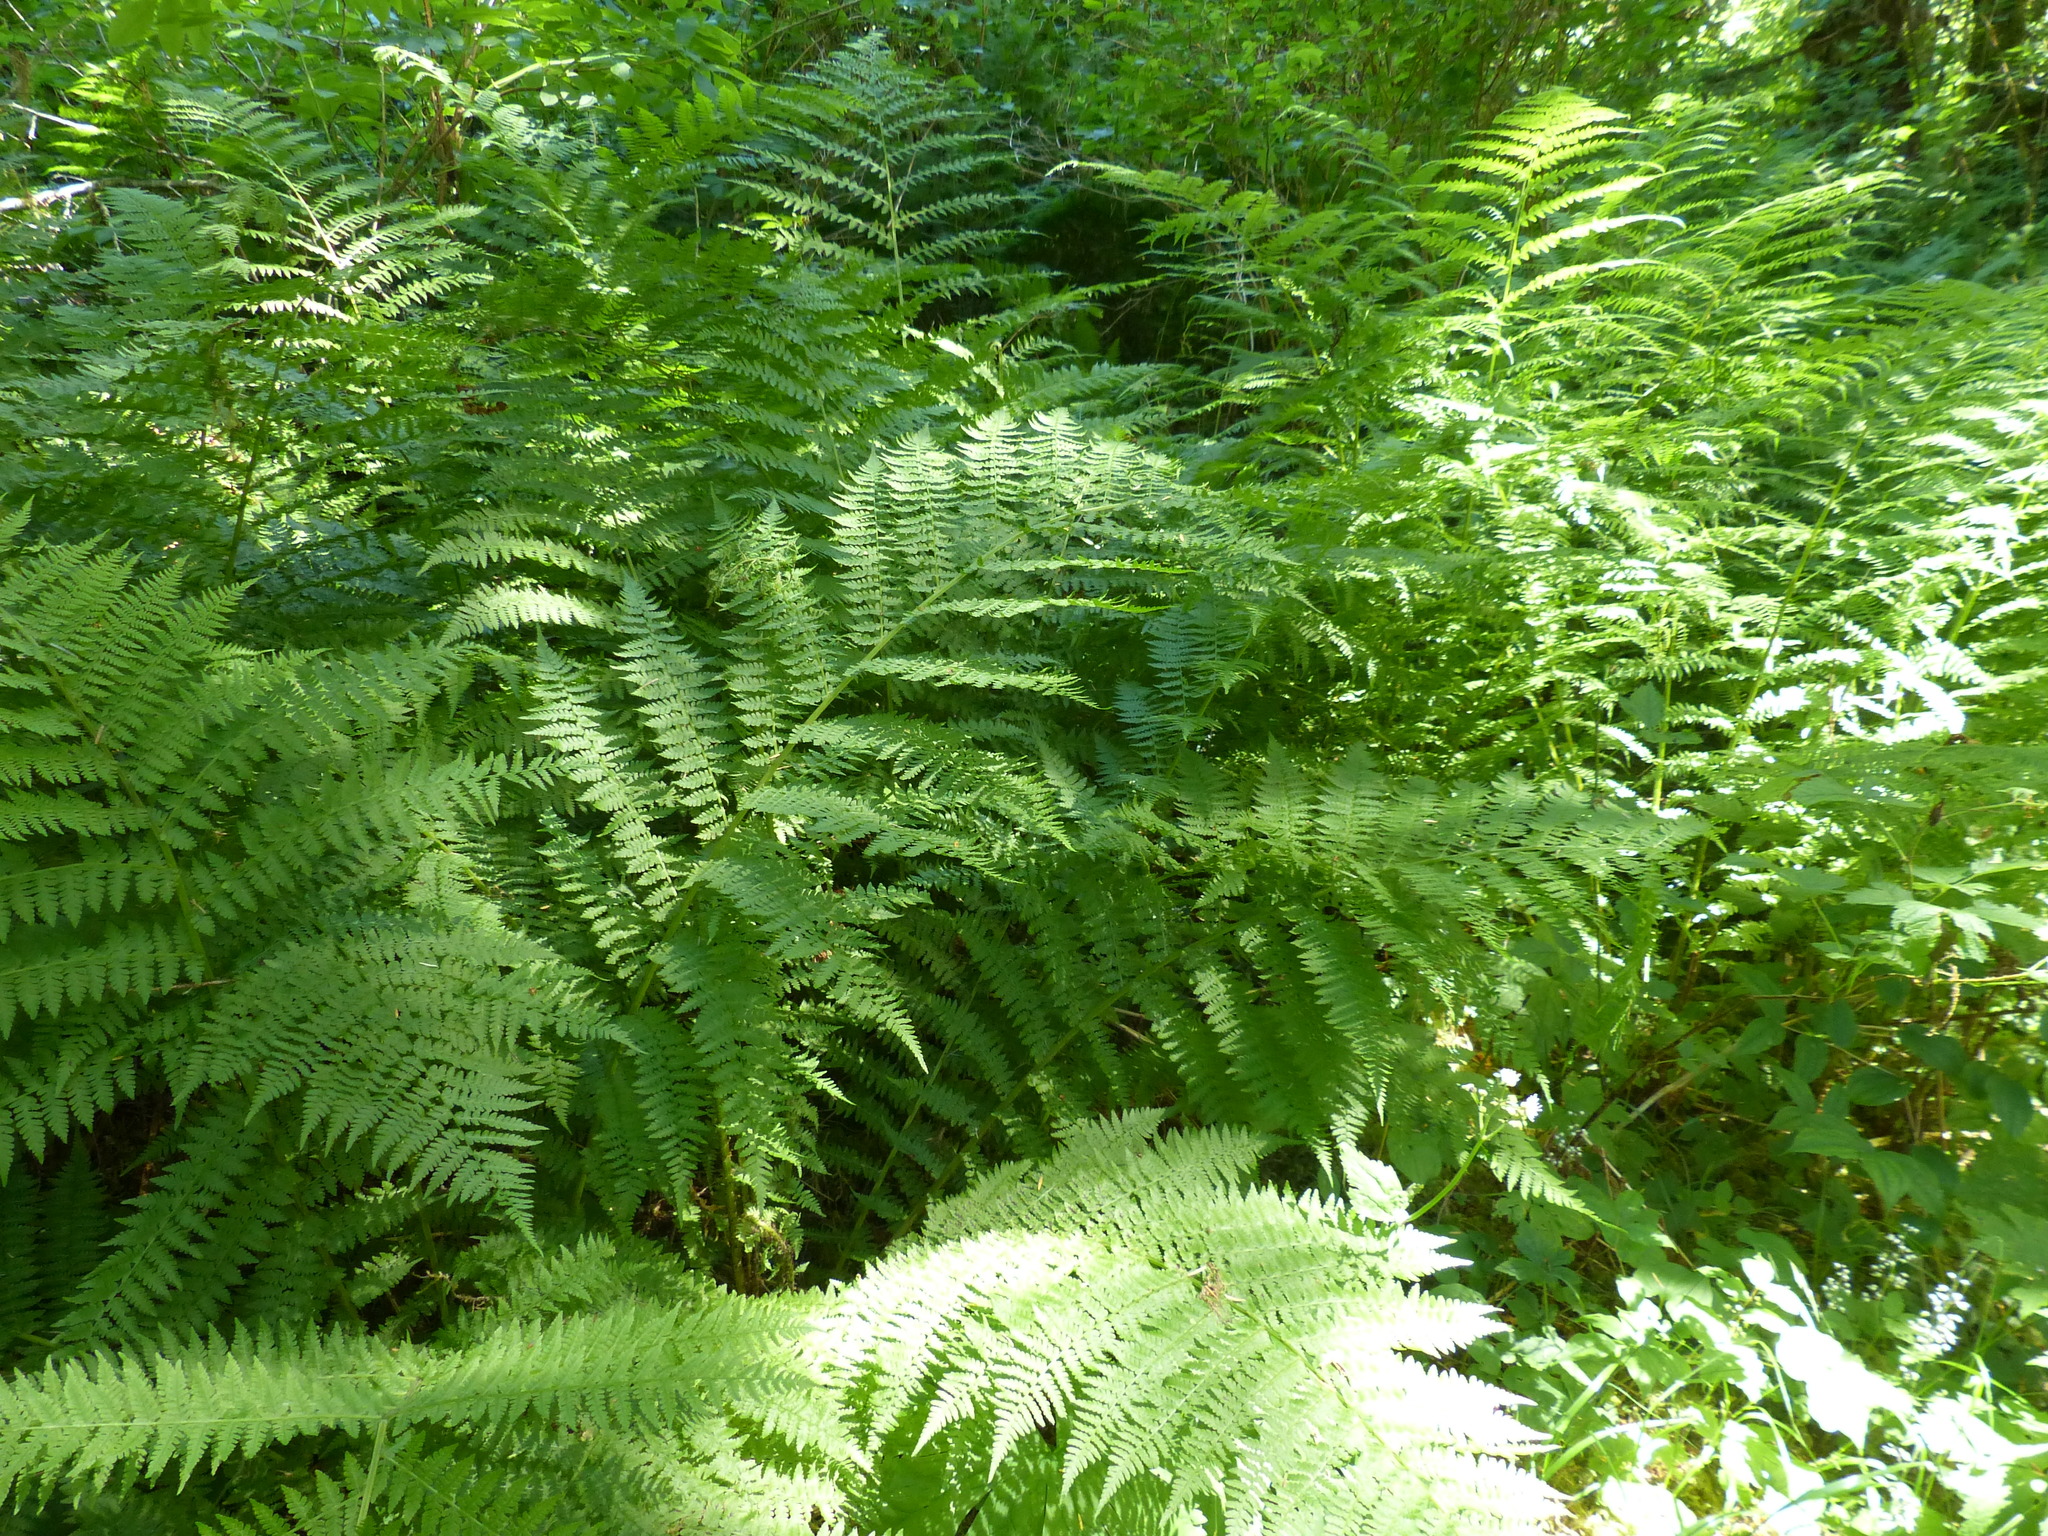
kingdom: Plantae
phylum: Tracheophyta
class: Polypodiopsida
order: Polypodiales
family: Athyriaceae
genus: Athyrium
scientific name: Athyrium filix-femina
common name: Lady fern
